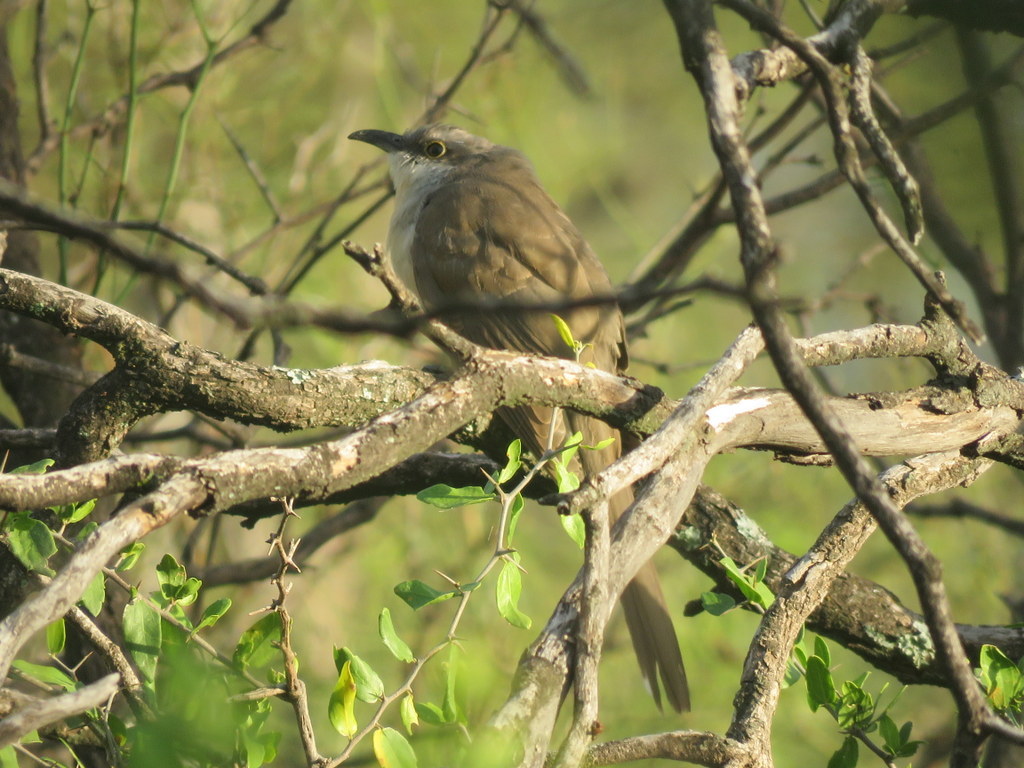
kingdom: Animalia
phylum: Chordata
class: Aves
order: Cuculiformes
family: Cuculidae
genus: Coccyzus
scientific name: Coccyzus melacoryphus
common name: Dark-billed cuckoo
